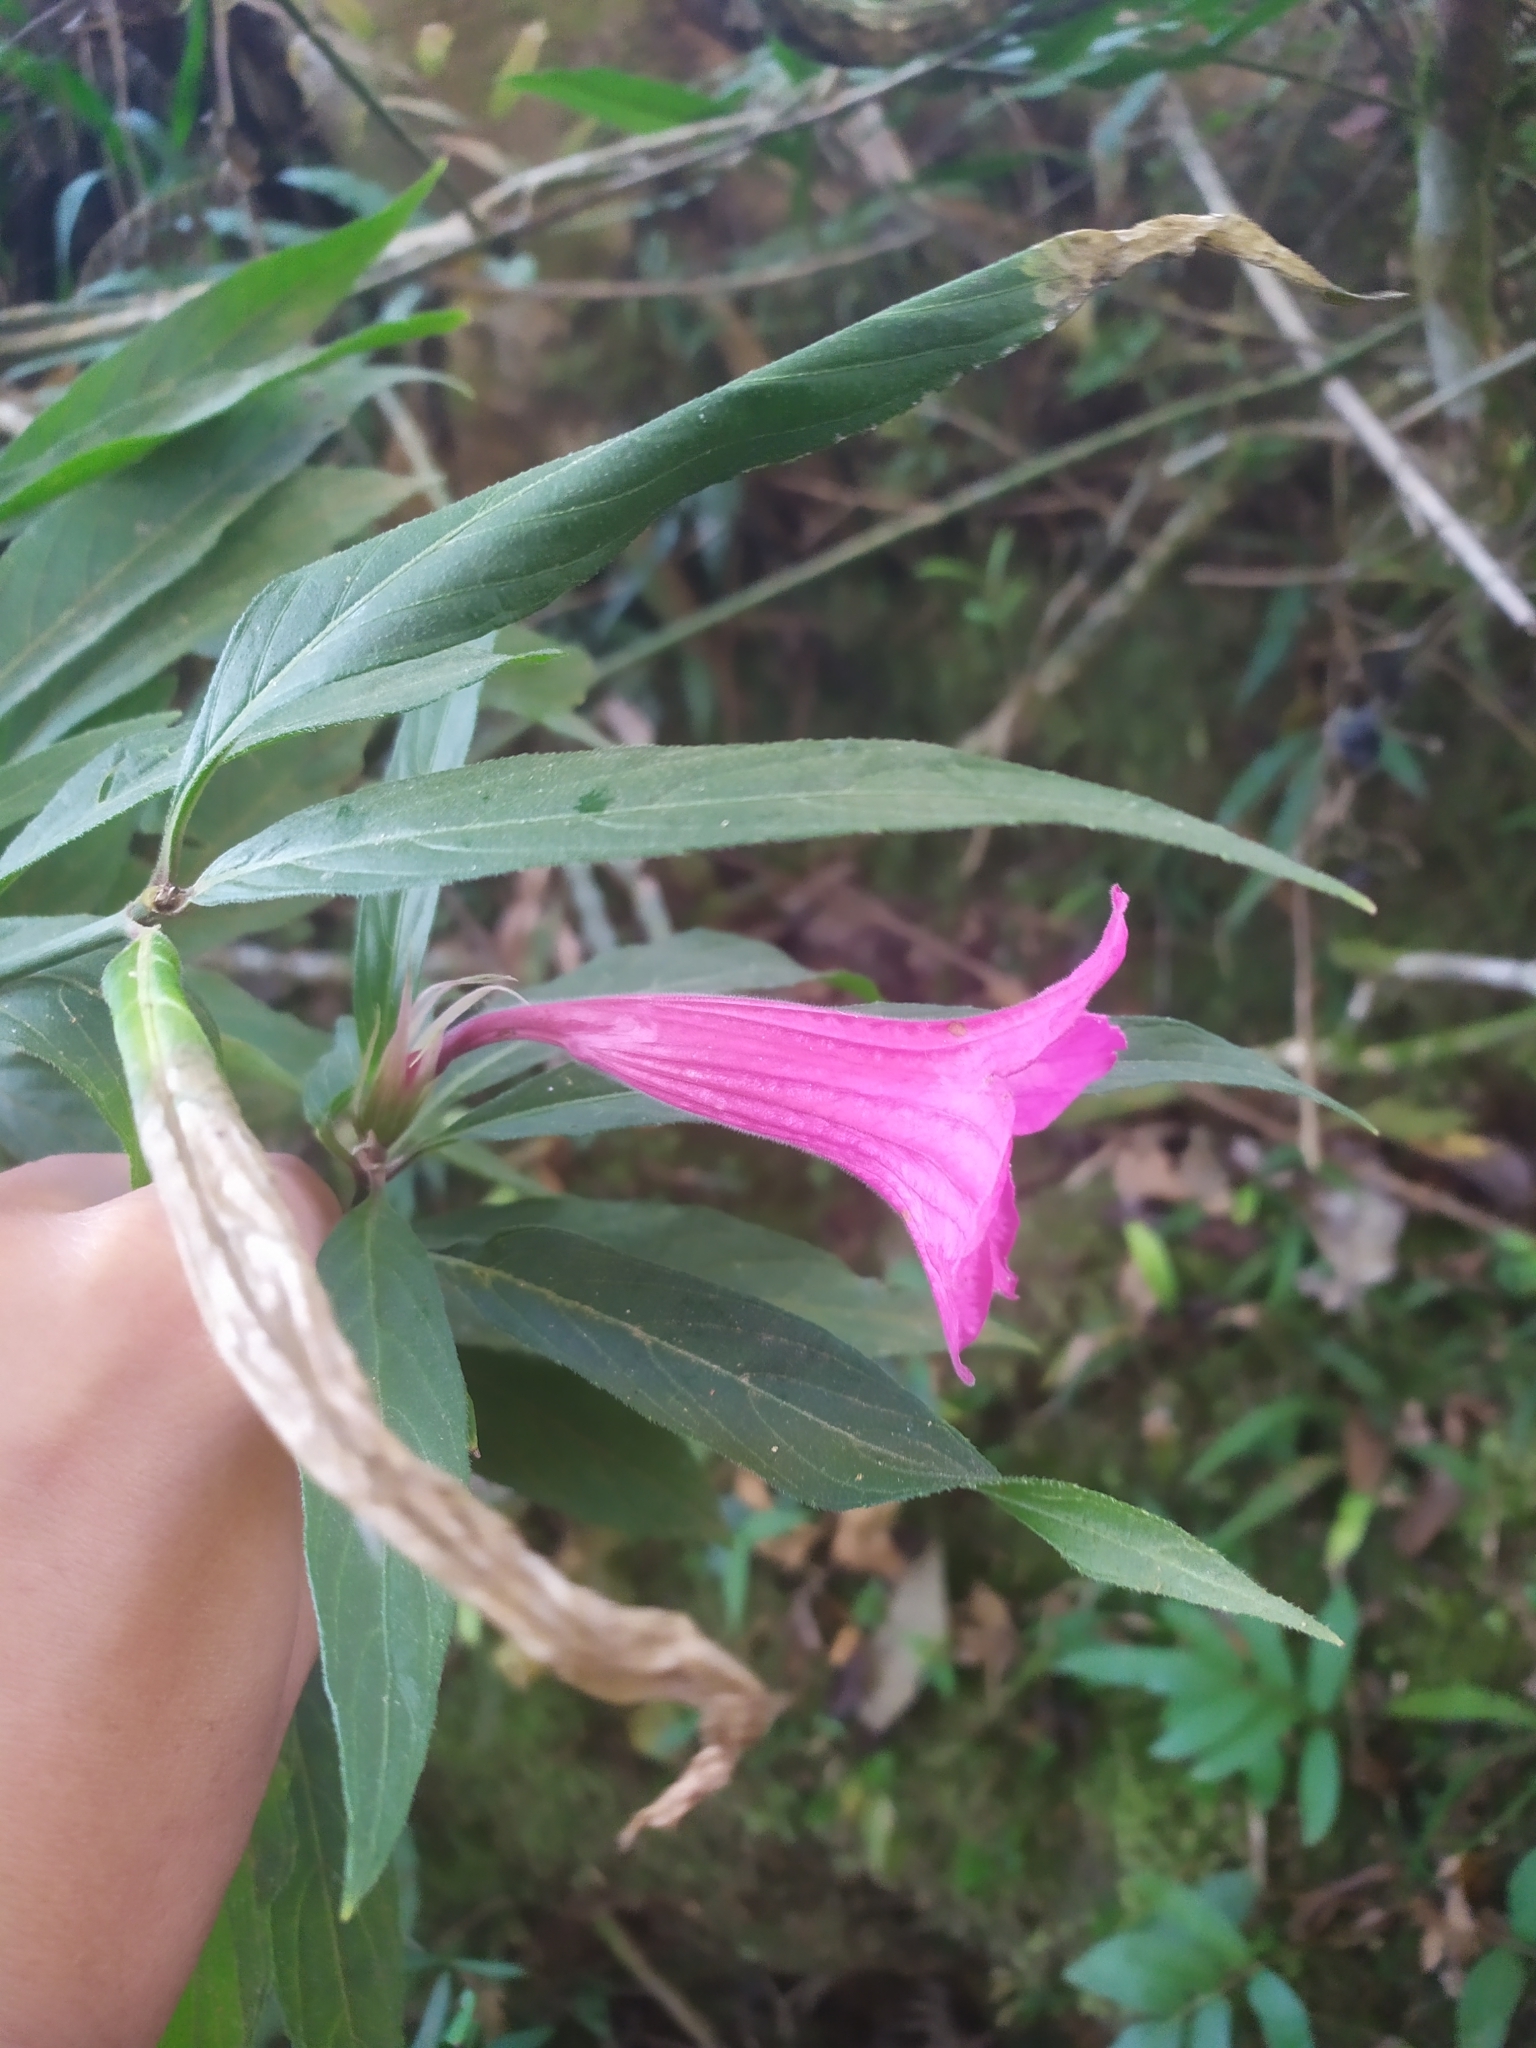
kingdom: Plantae
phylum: Tracheophyta
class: Magnoliopsida
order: Lamiales
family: Acanthaceae
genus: Ruellia
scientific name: Ruellia macrantha
